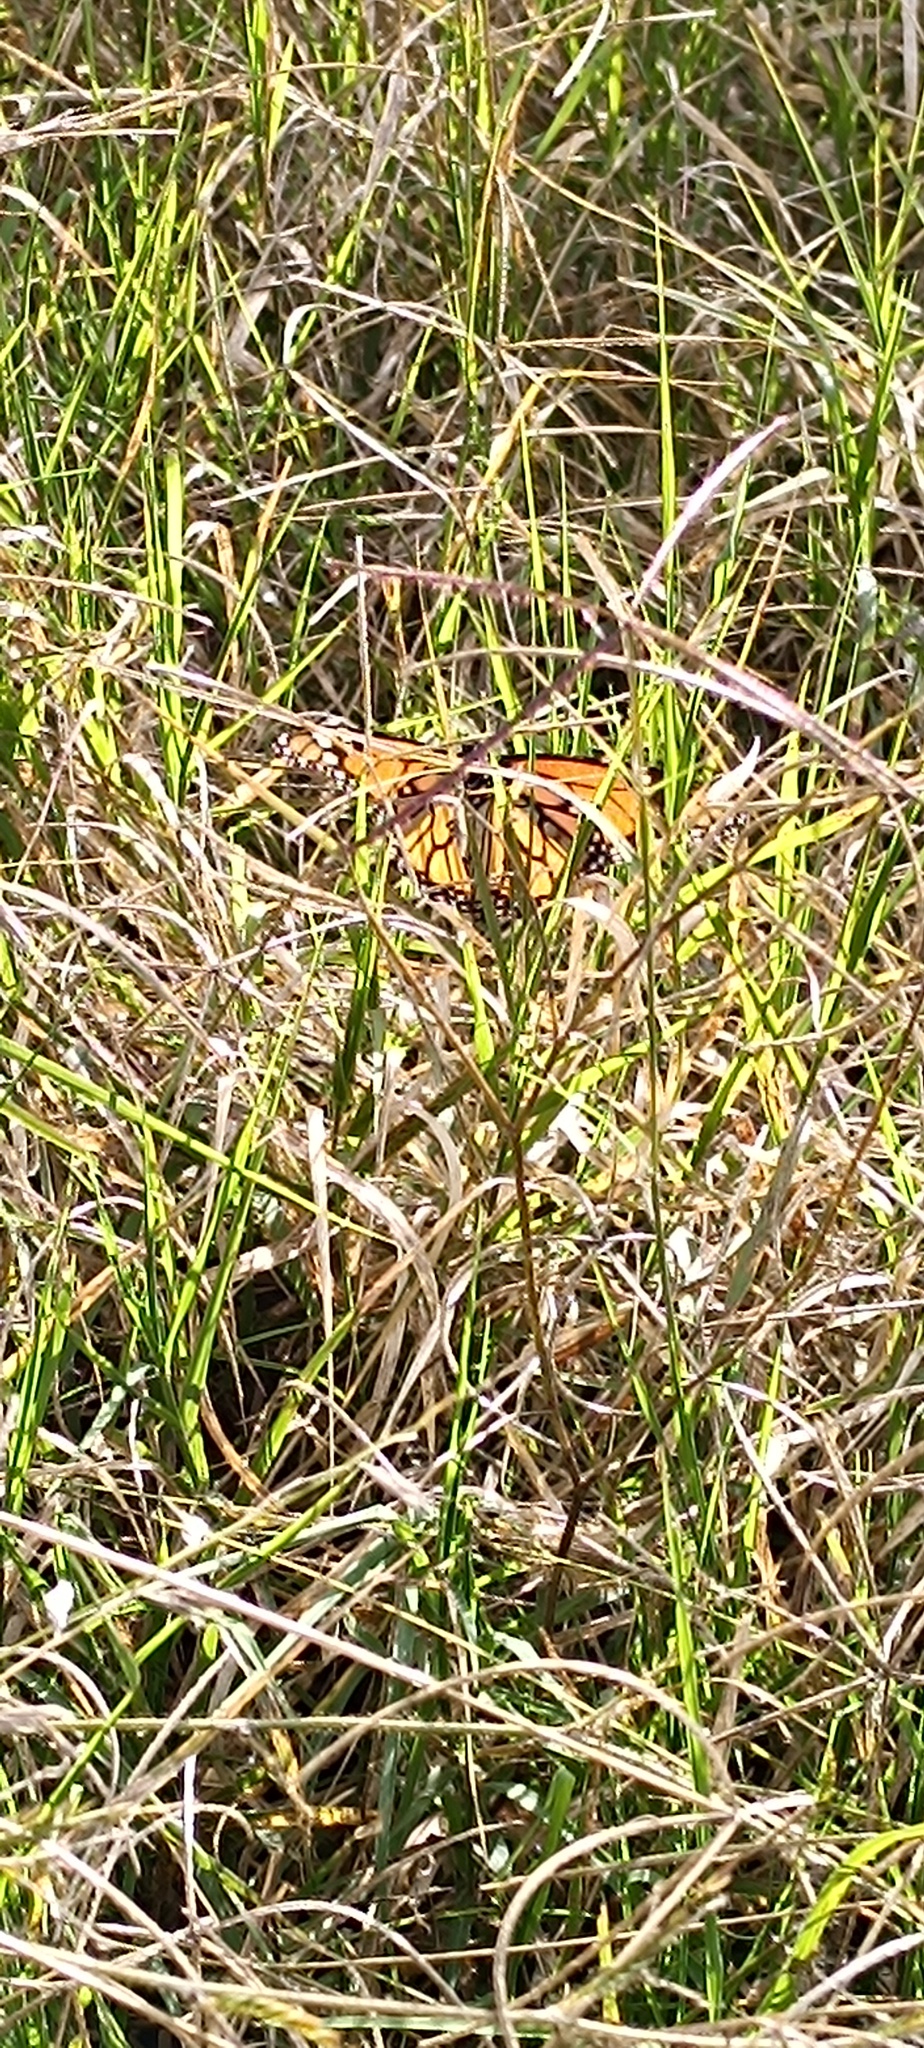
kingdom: Animalia
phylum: Arthropoda
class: Insecta
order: Lepidoptera
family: Nymphalidae
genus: Danaus
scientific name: Danaus plexippus
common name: Monarch
